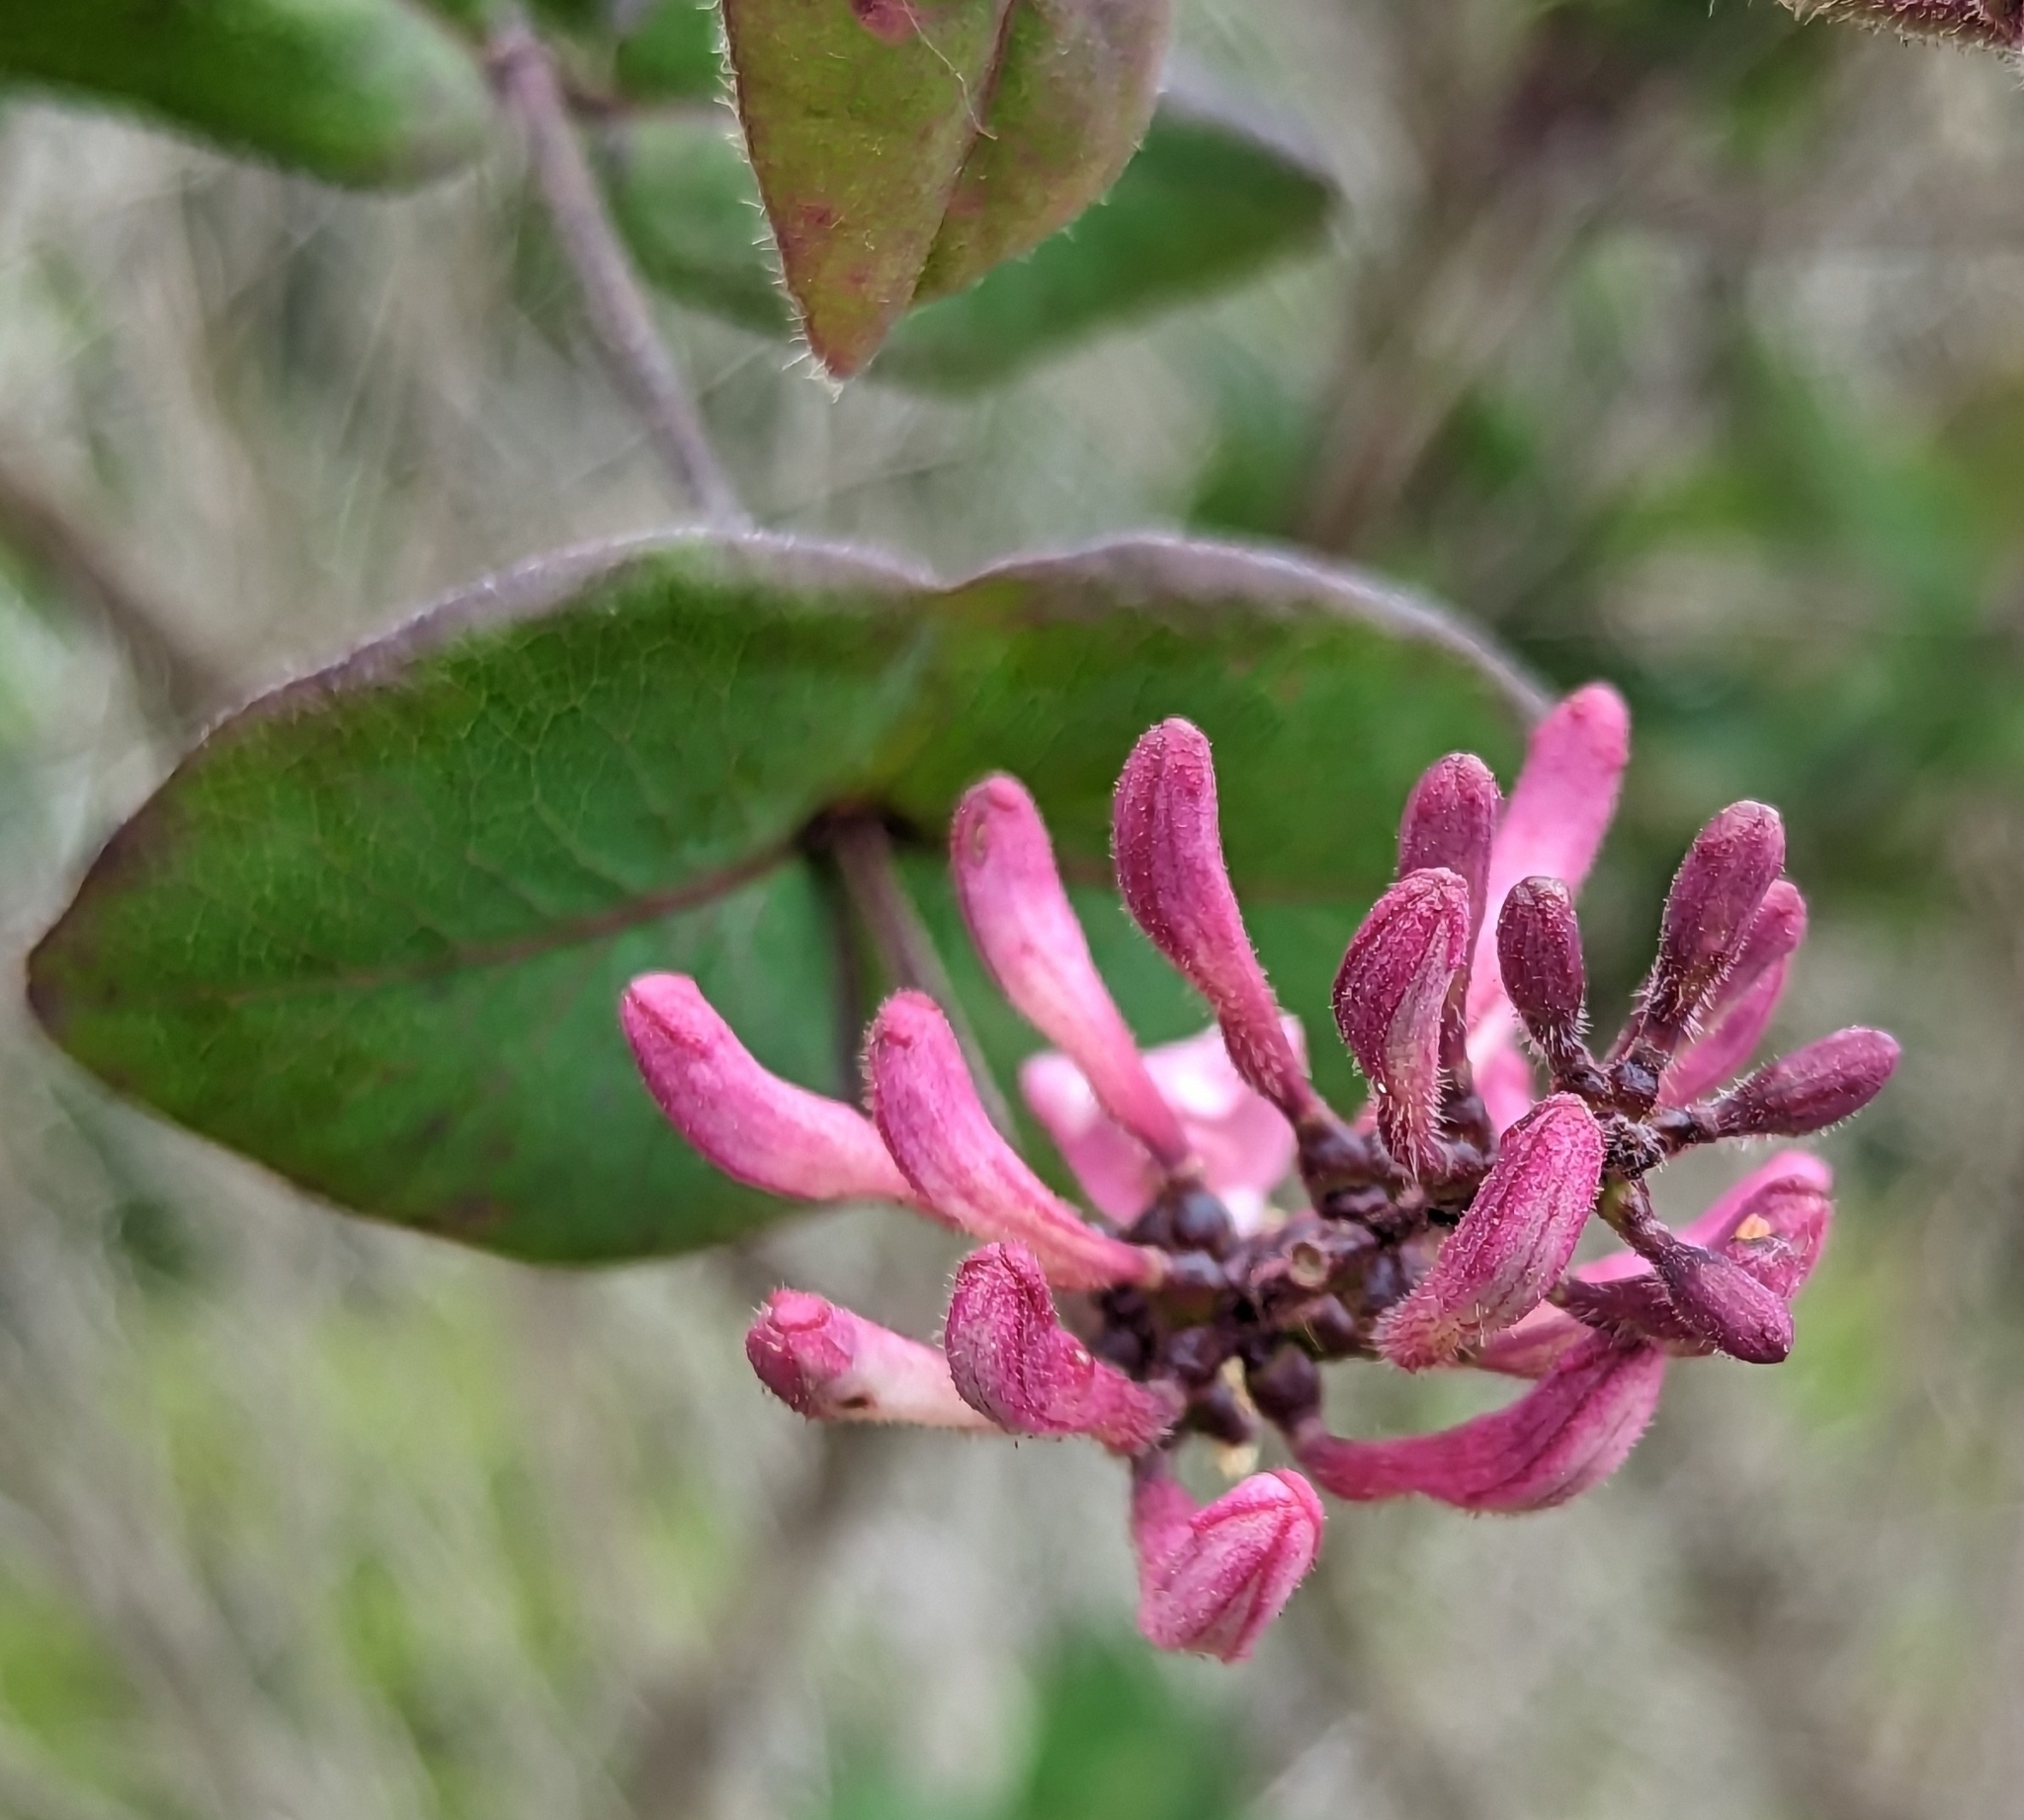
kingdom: Plantae
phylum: Tracheophyta
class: Magnoliopsida
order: Dipsacales
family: Caprifoliaceae
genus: Lonicera
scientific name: Lonicera hispidula
